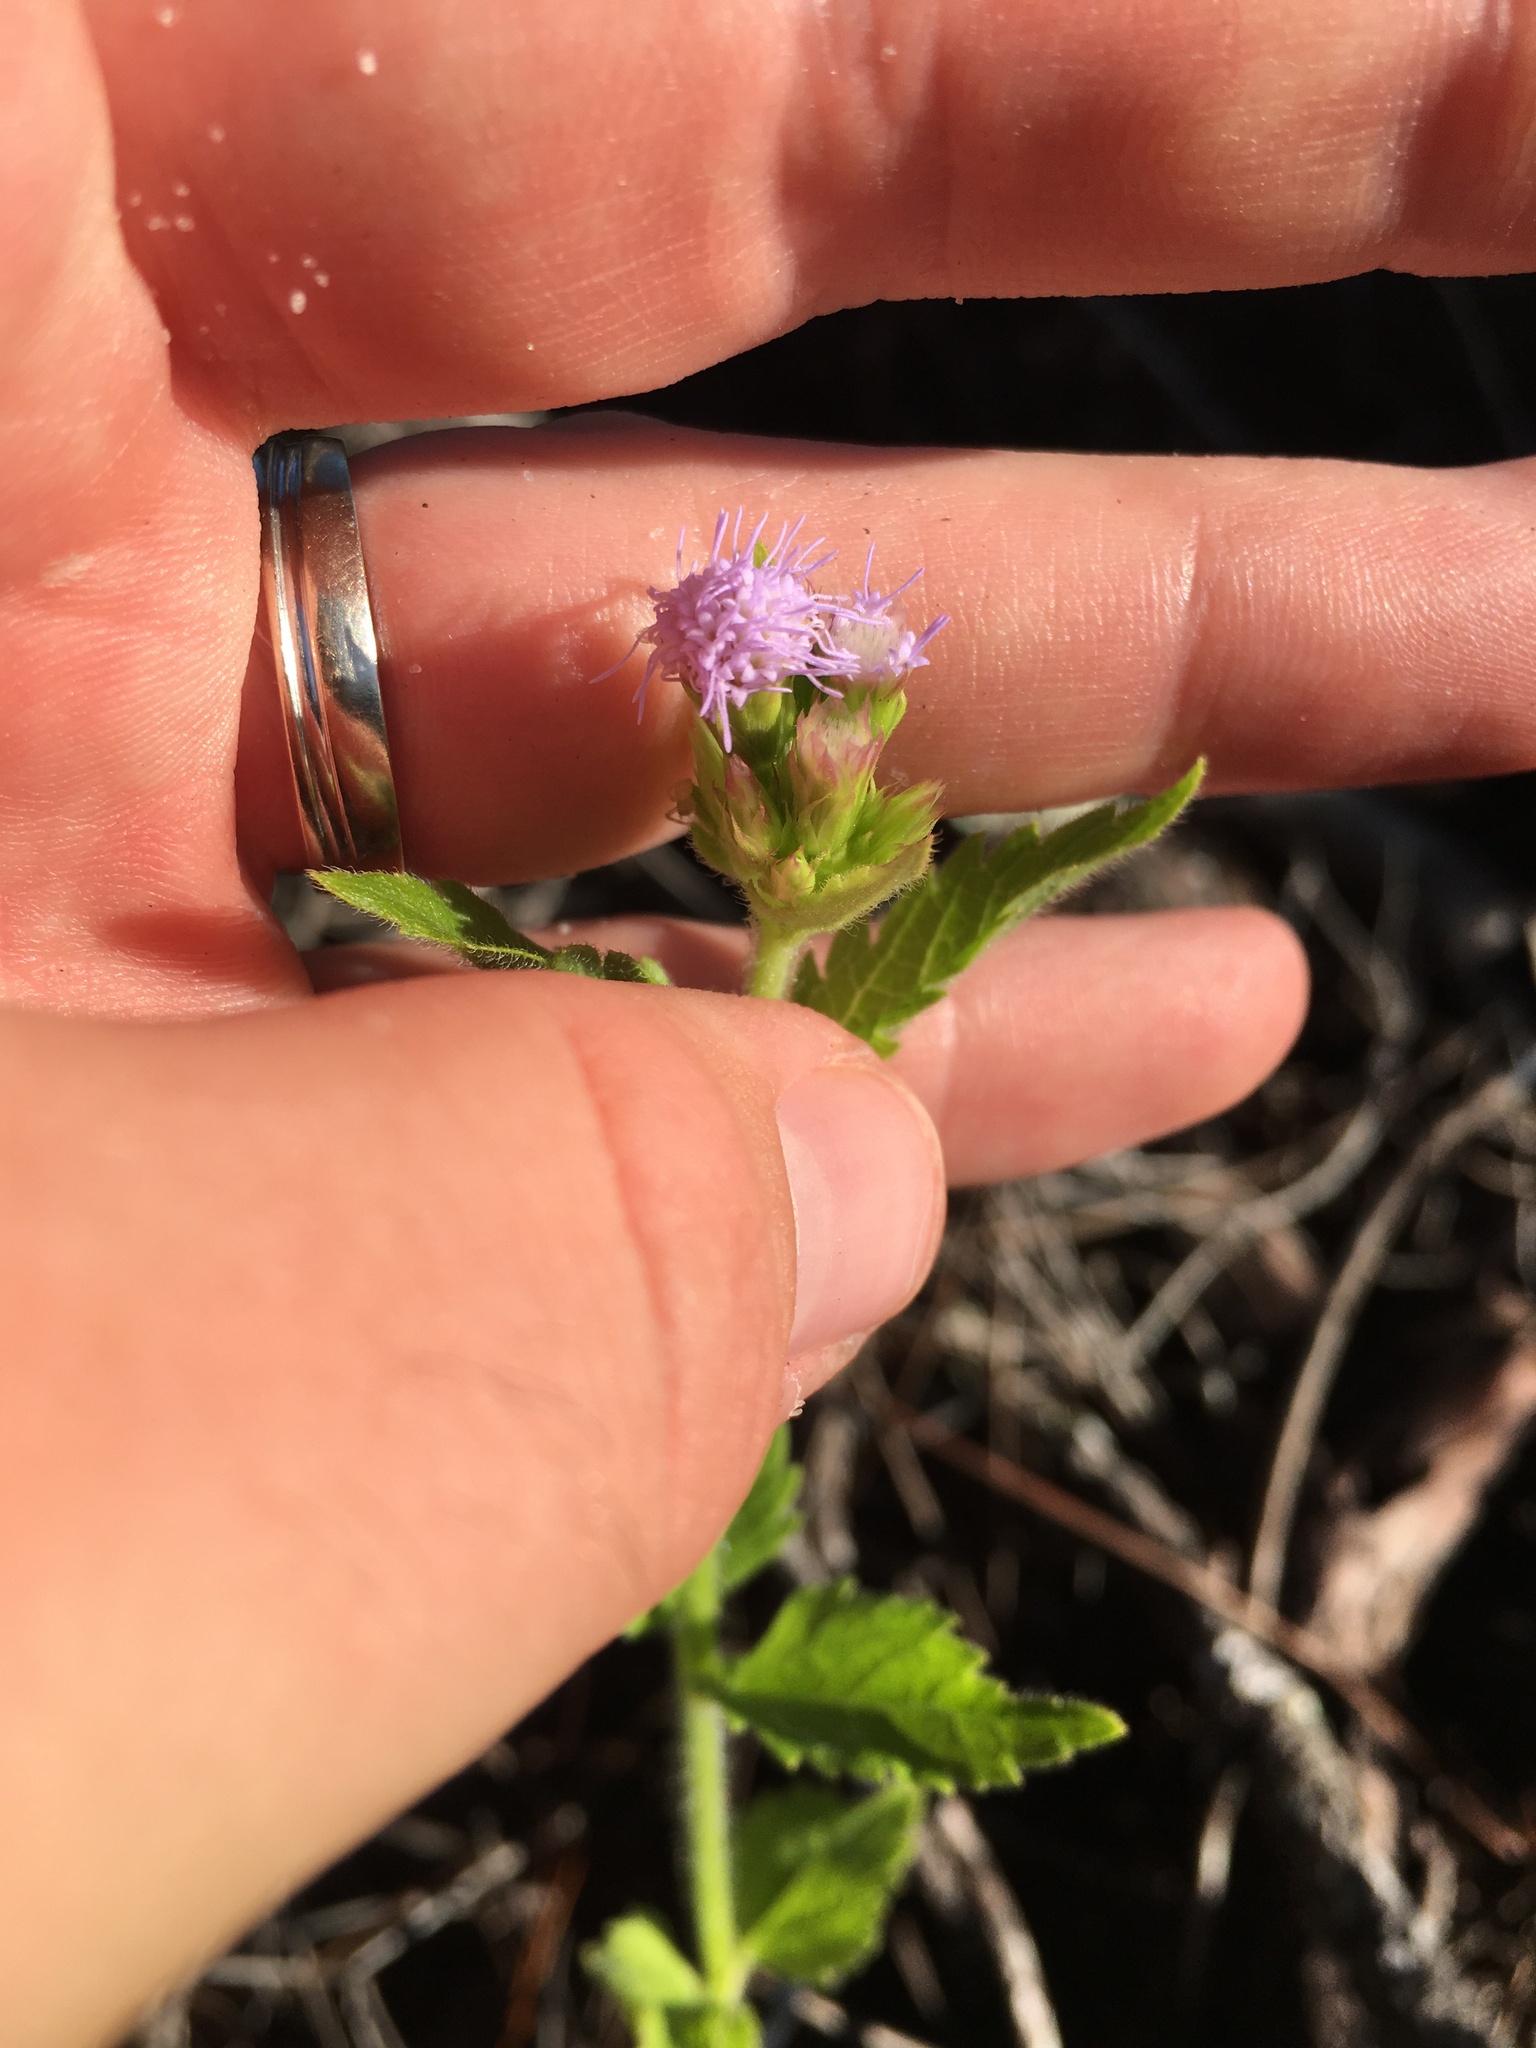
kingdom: Plantae
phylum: Tracheophyta
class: Magnoliopsida
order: Asterales
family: Asteraceae
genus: Praxelis
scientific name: Praxelis clematidea
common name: Praxelis
